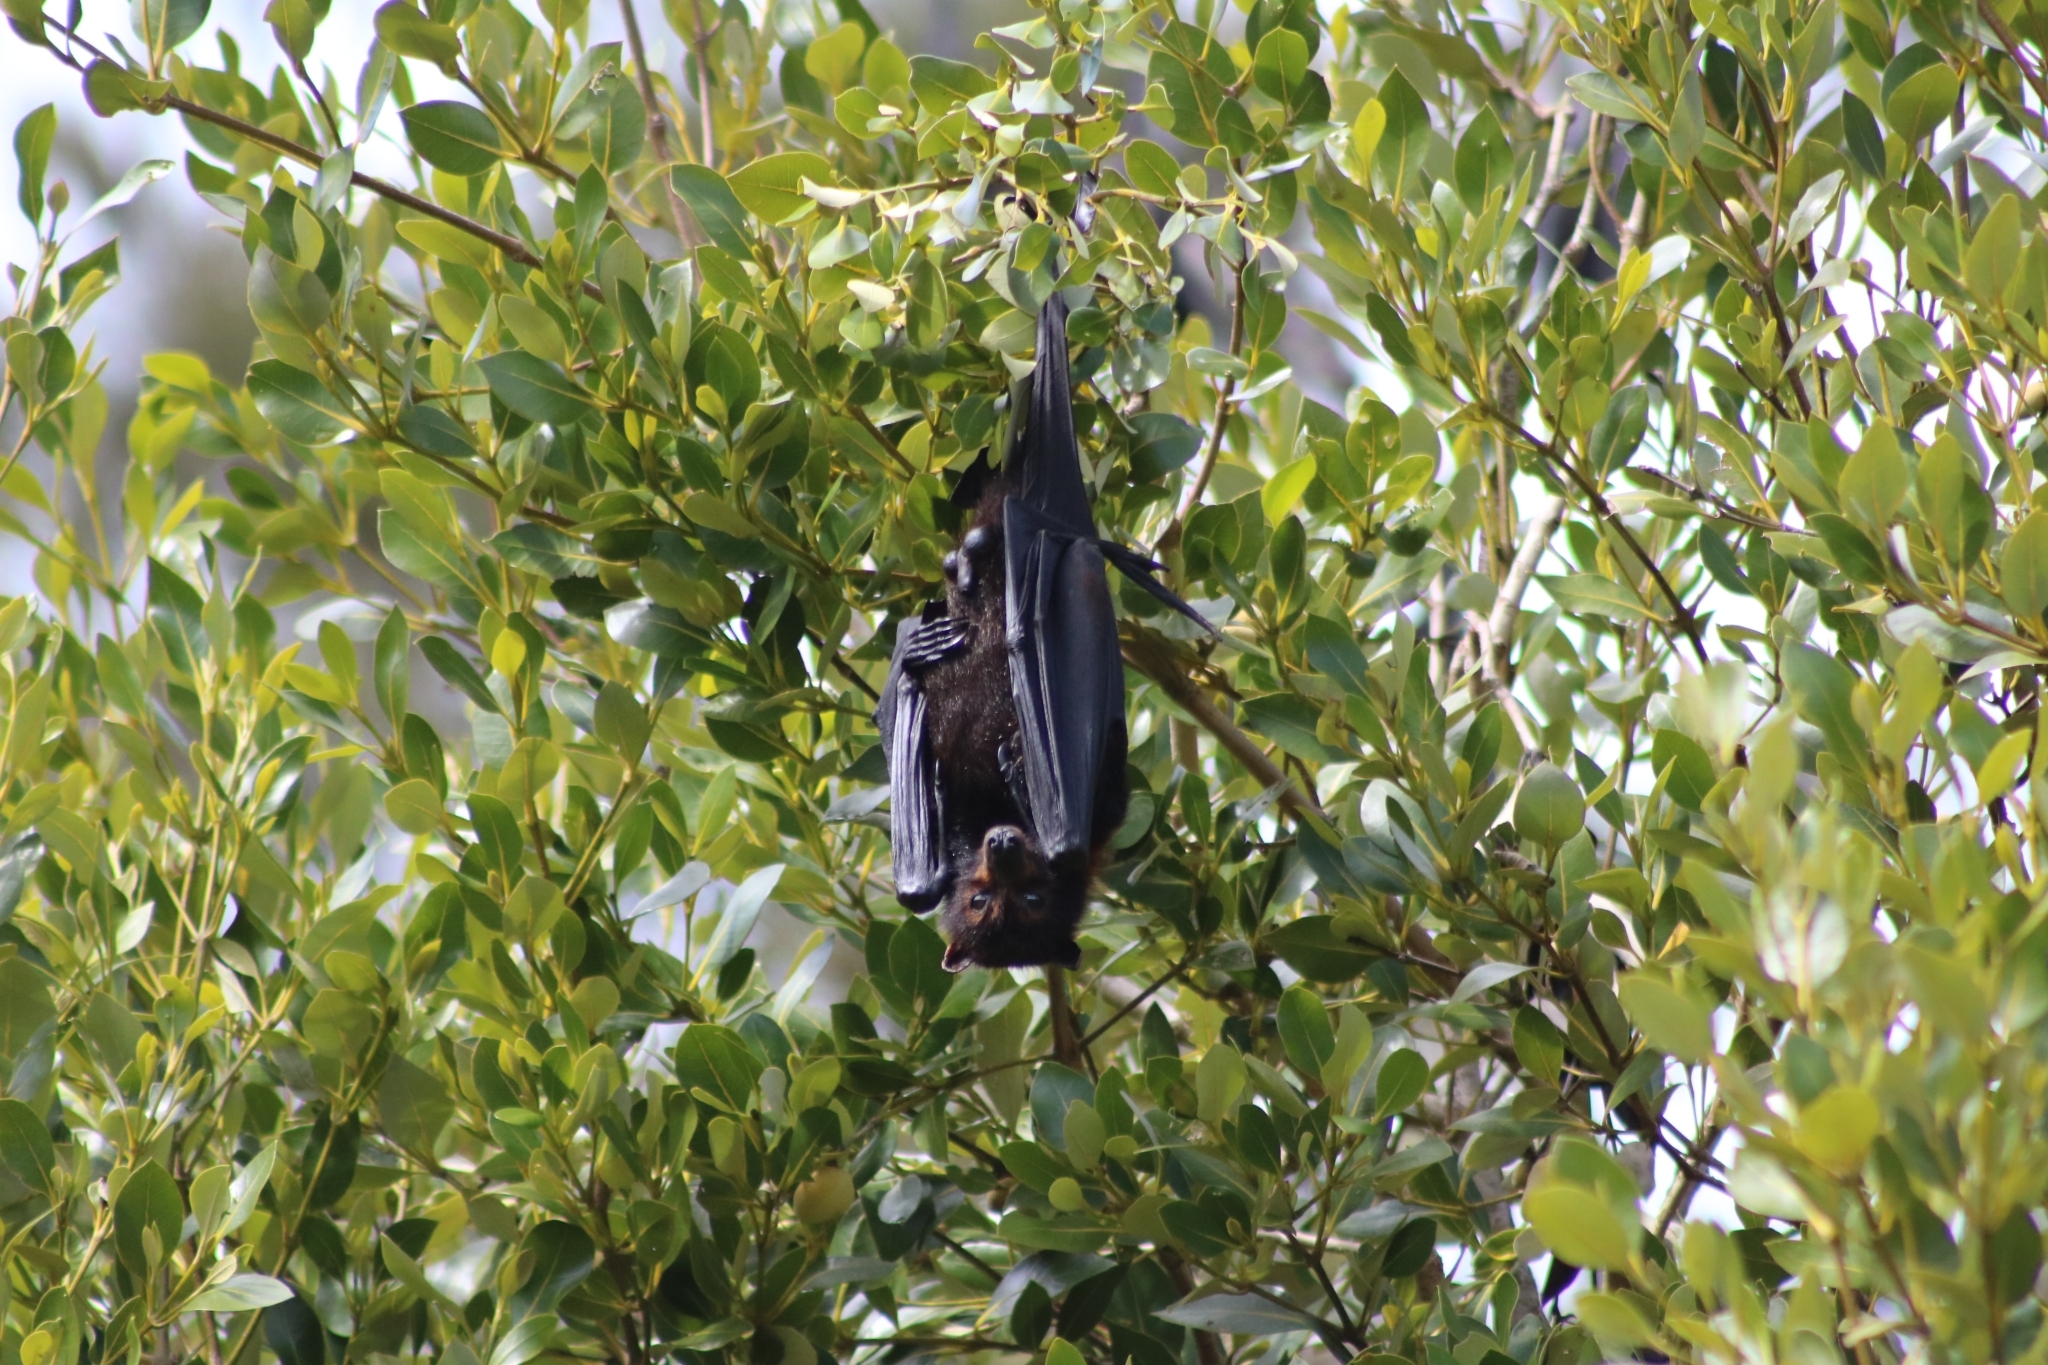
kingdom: Animalia
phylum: Chordata
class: Mammalia
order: Chiroptera
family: Pteropodidae
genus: Pteropus
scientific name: Pteropus alecto
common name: Black flying fox
